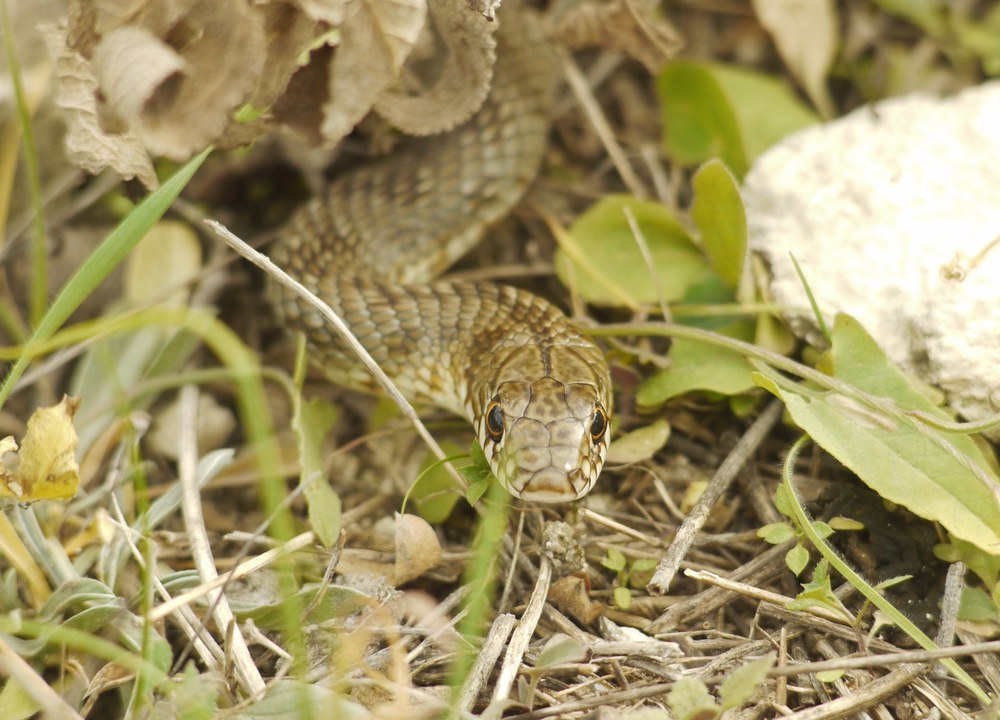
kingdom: Animalia
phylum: Chordata
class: Squamata
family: Colubridae
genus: Dolichophis
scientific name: Dolichophis caspius
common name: Large whip snake
